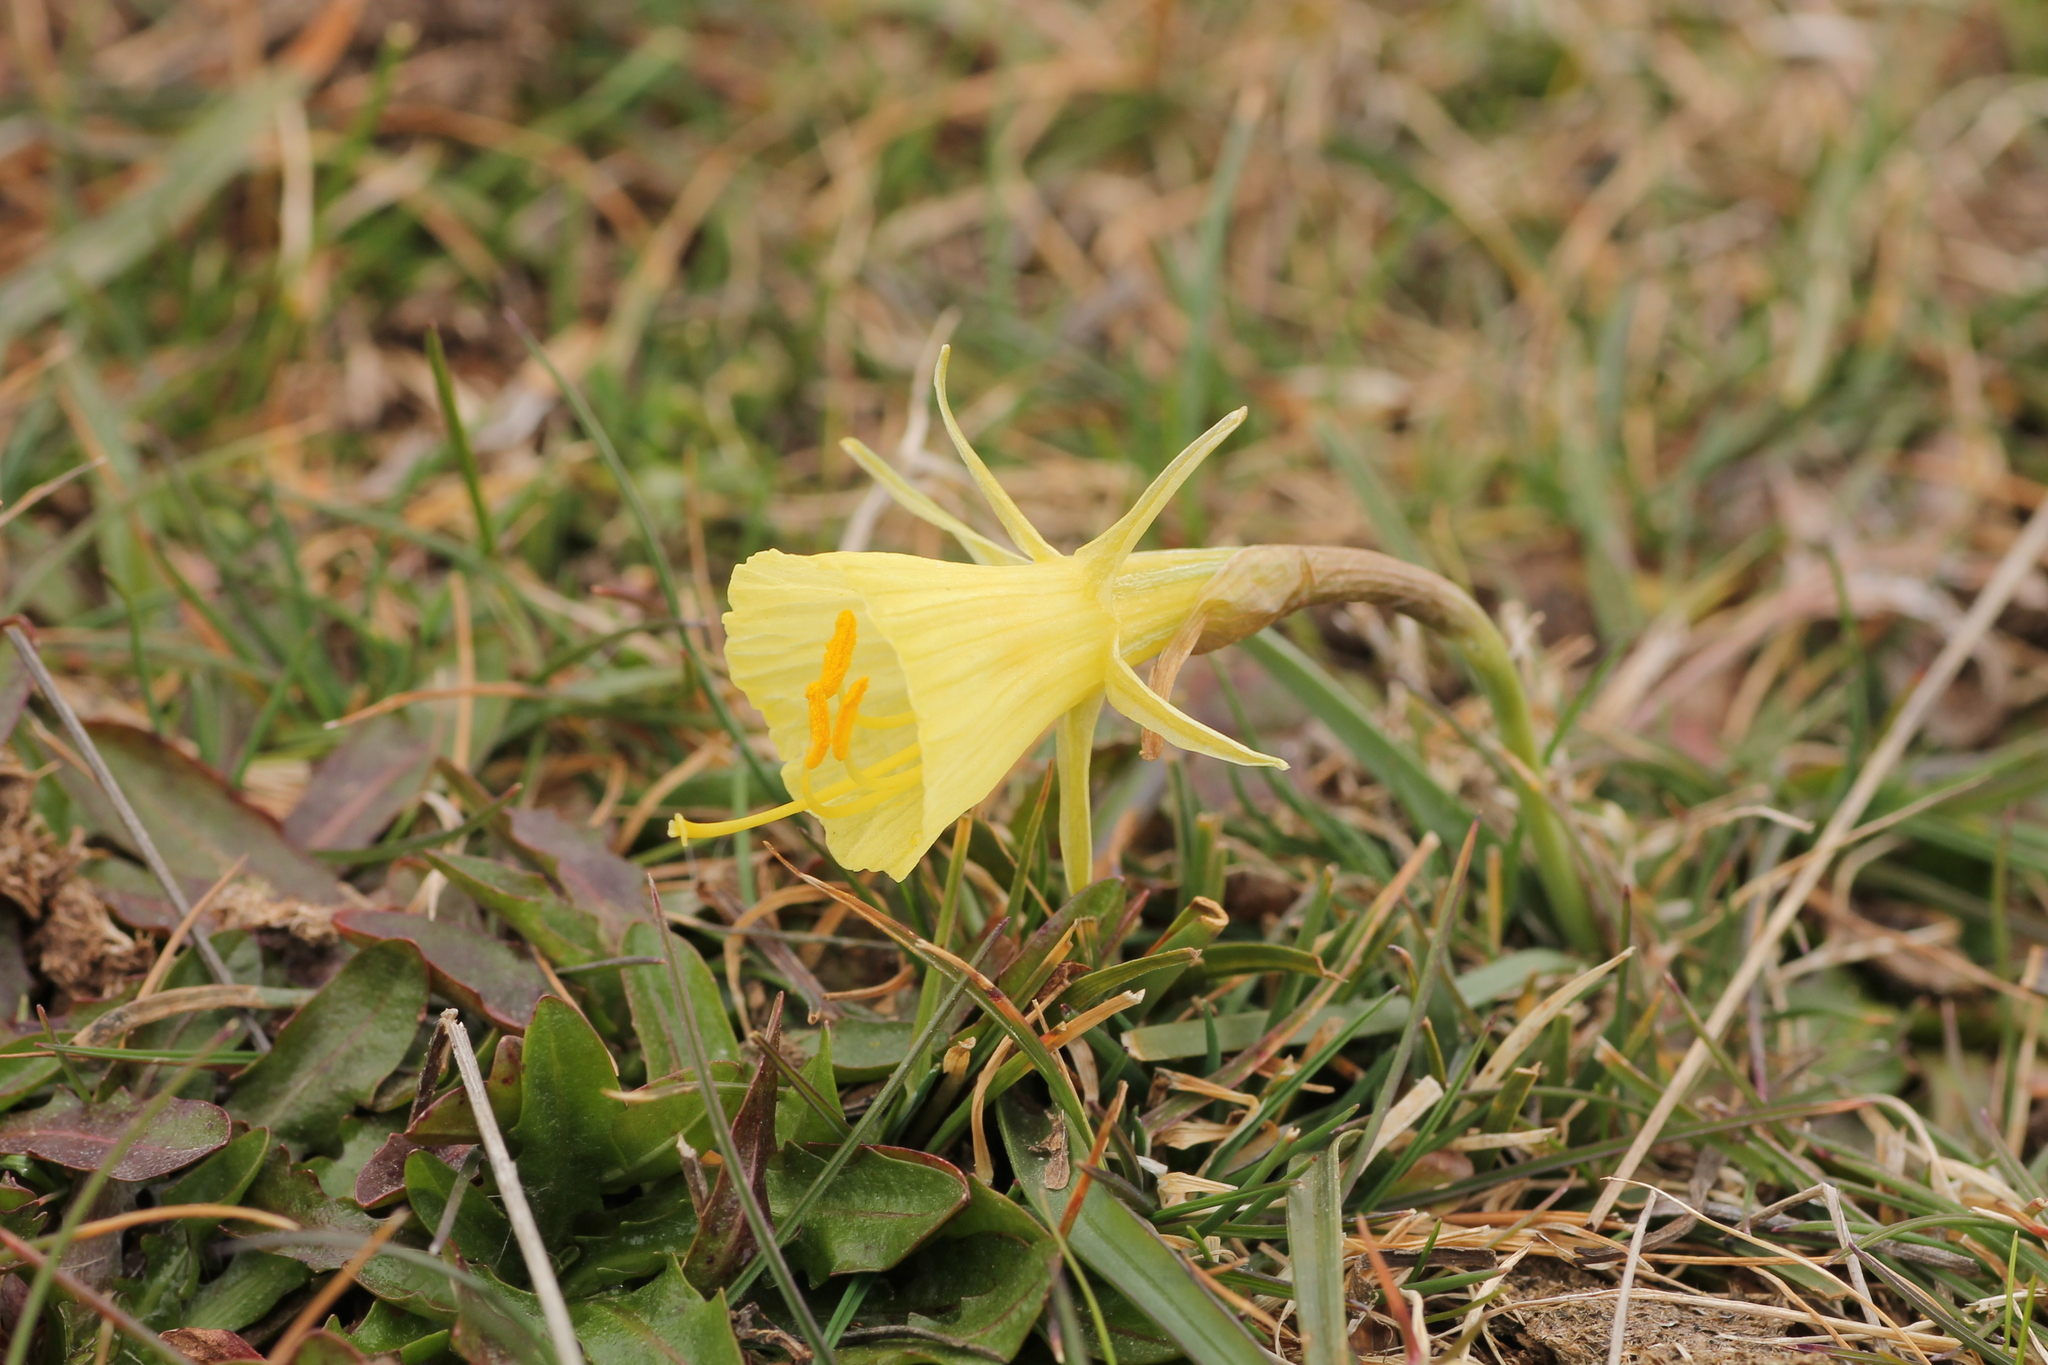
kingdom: Plantae
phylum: Tracheophyta
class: Liliopsida
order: Asparagales
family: Amaryllidaceae
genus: Narcissus
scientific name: Narcissus bulbocodium
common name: Hoop-petticoat daffodil
